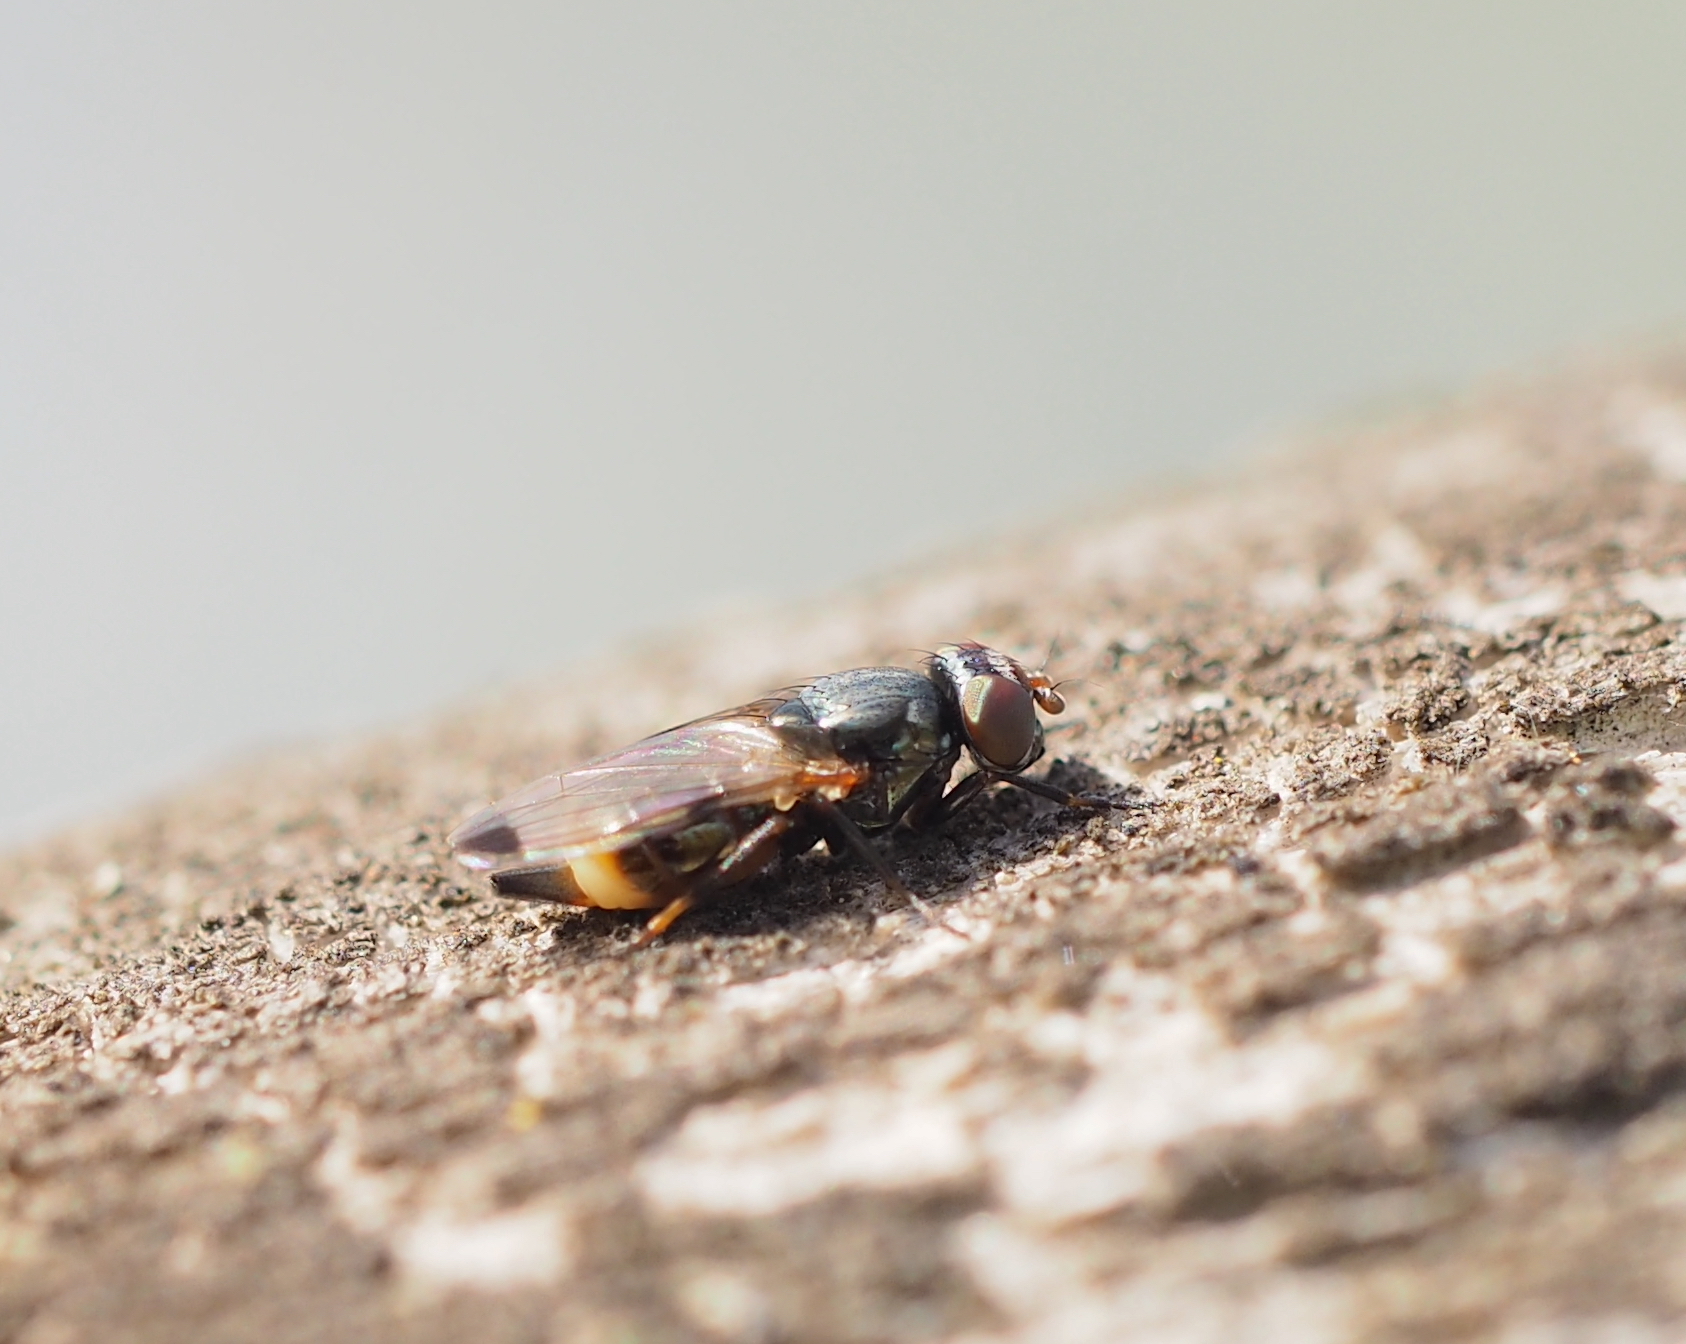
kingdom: Animalia
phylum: Arthropoda
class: Insecta
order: Diptera
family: Ulidiidae
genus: Euxesta
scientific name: Euxesta notata
